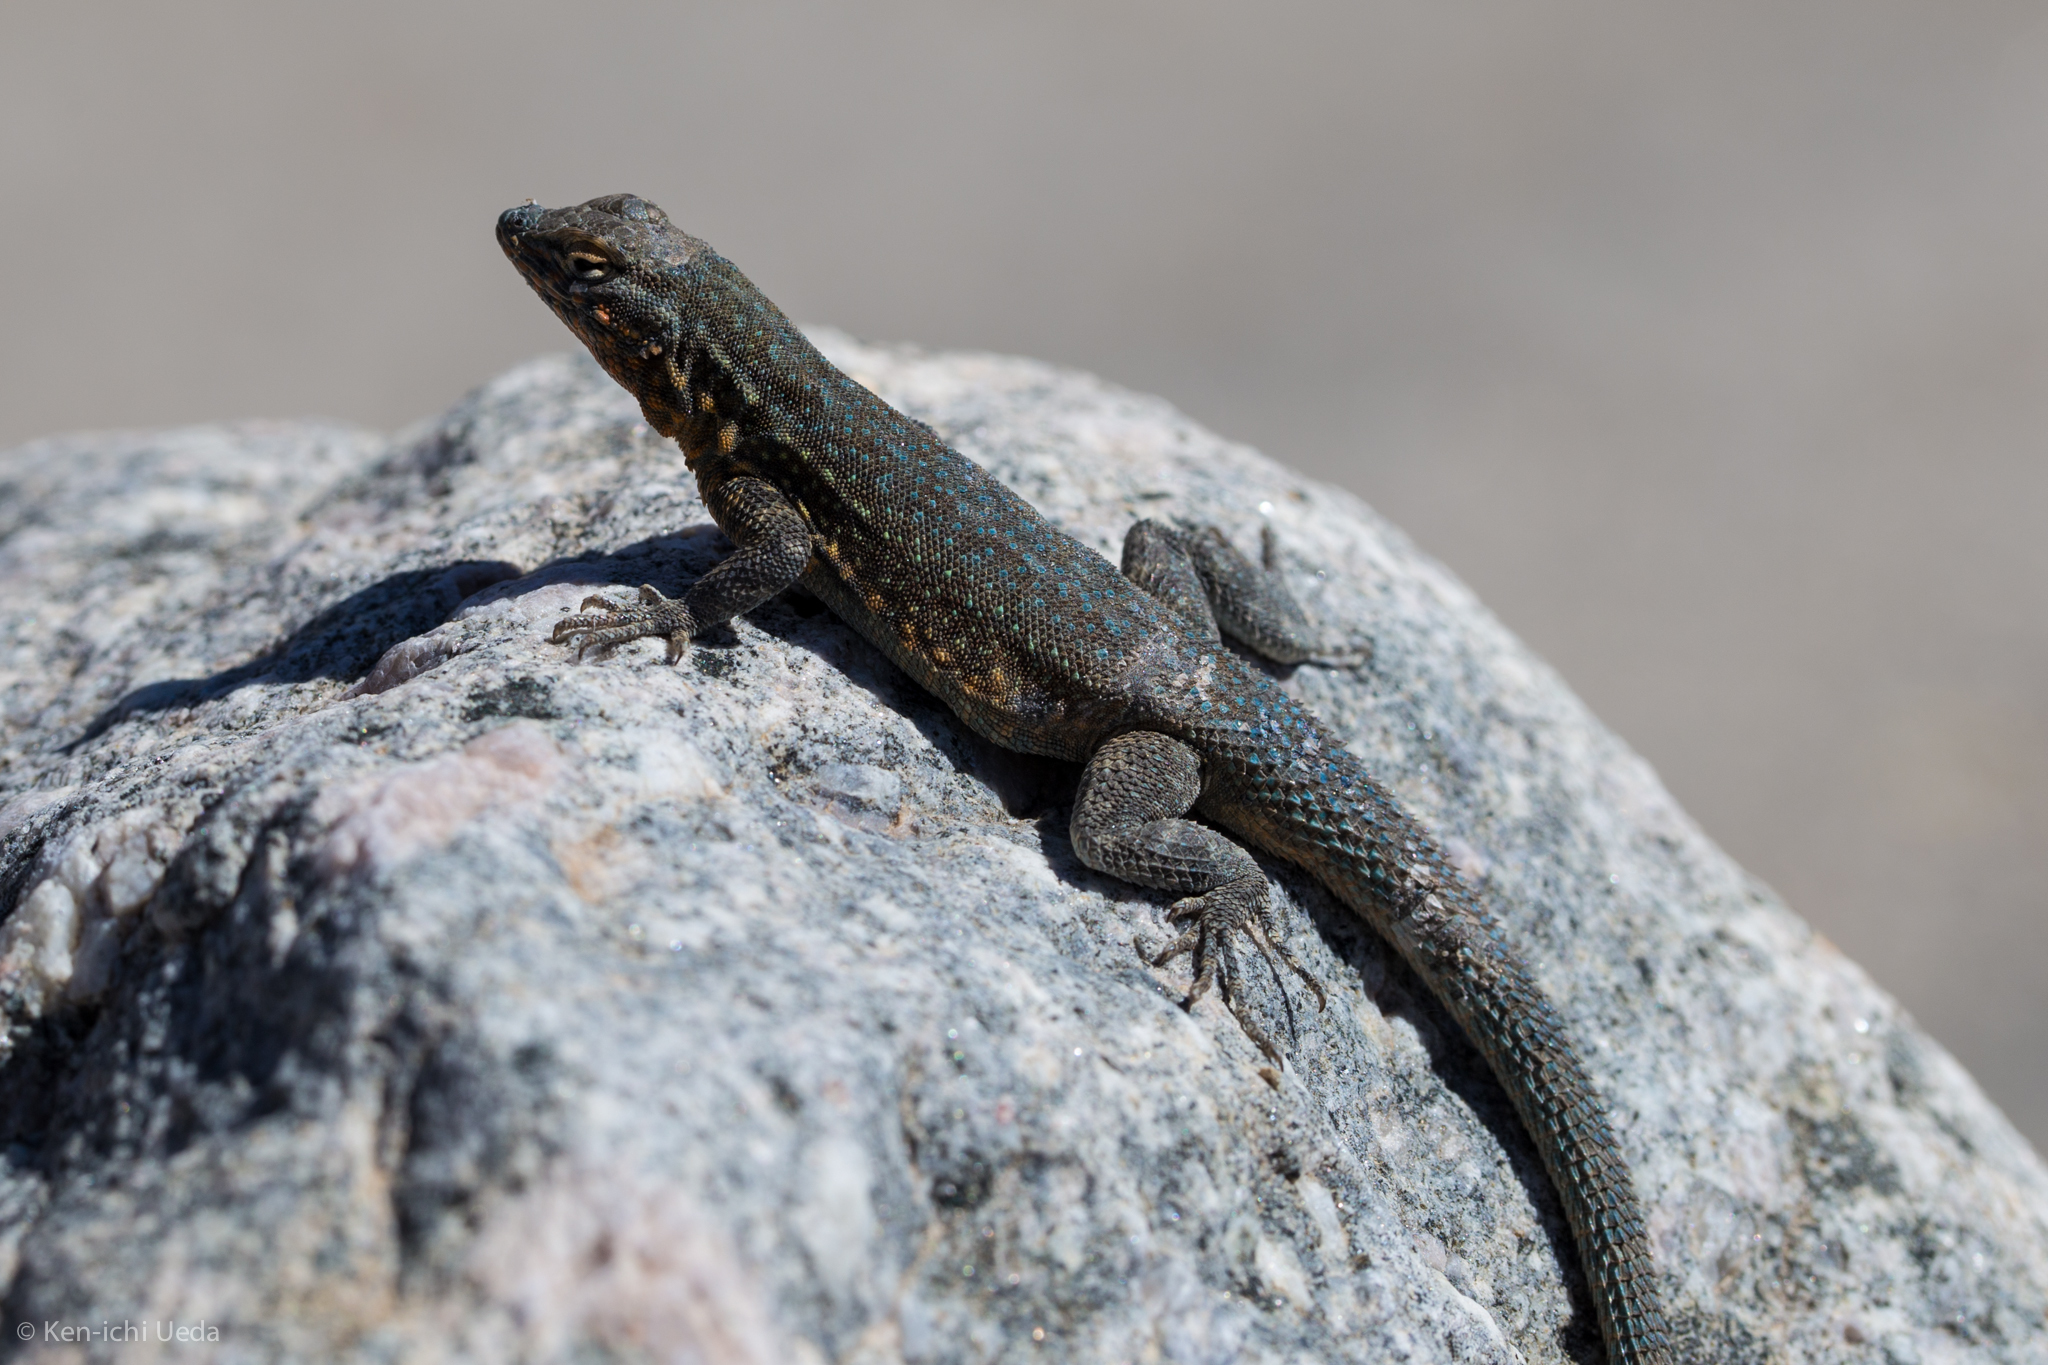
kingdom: Animalia
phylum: Chordata
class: Squamata
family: Phrynosomatidae
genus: Uta
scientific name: Uta stansburiana
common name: Side-blotched lizard
